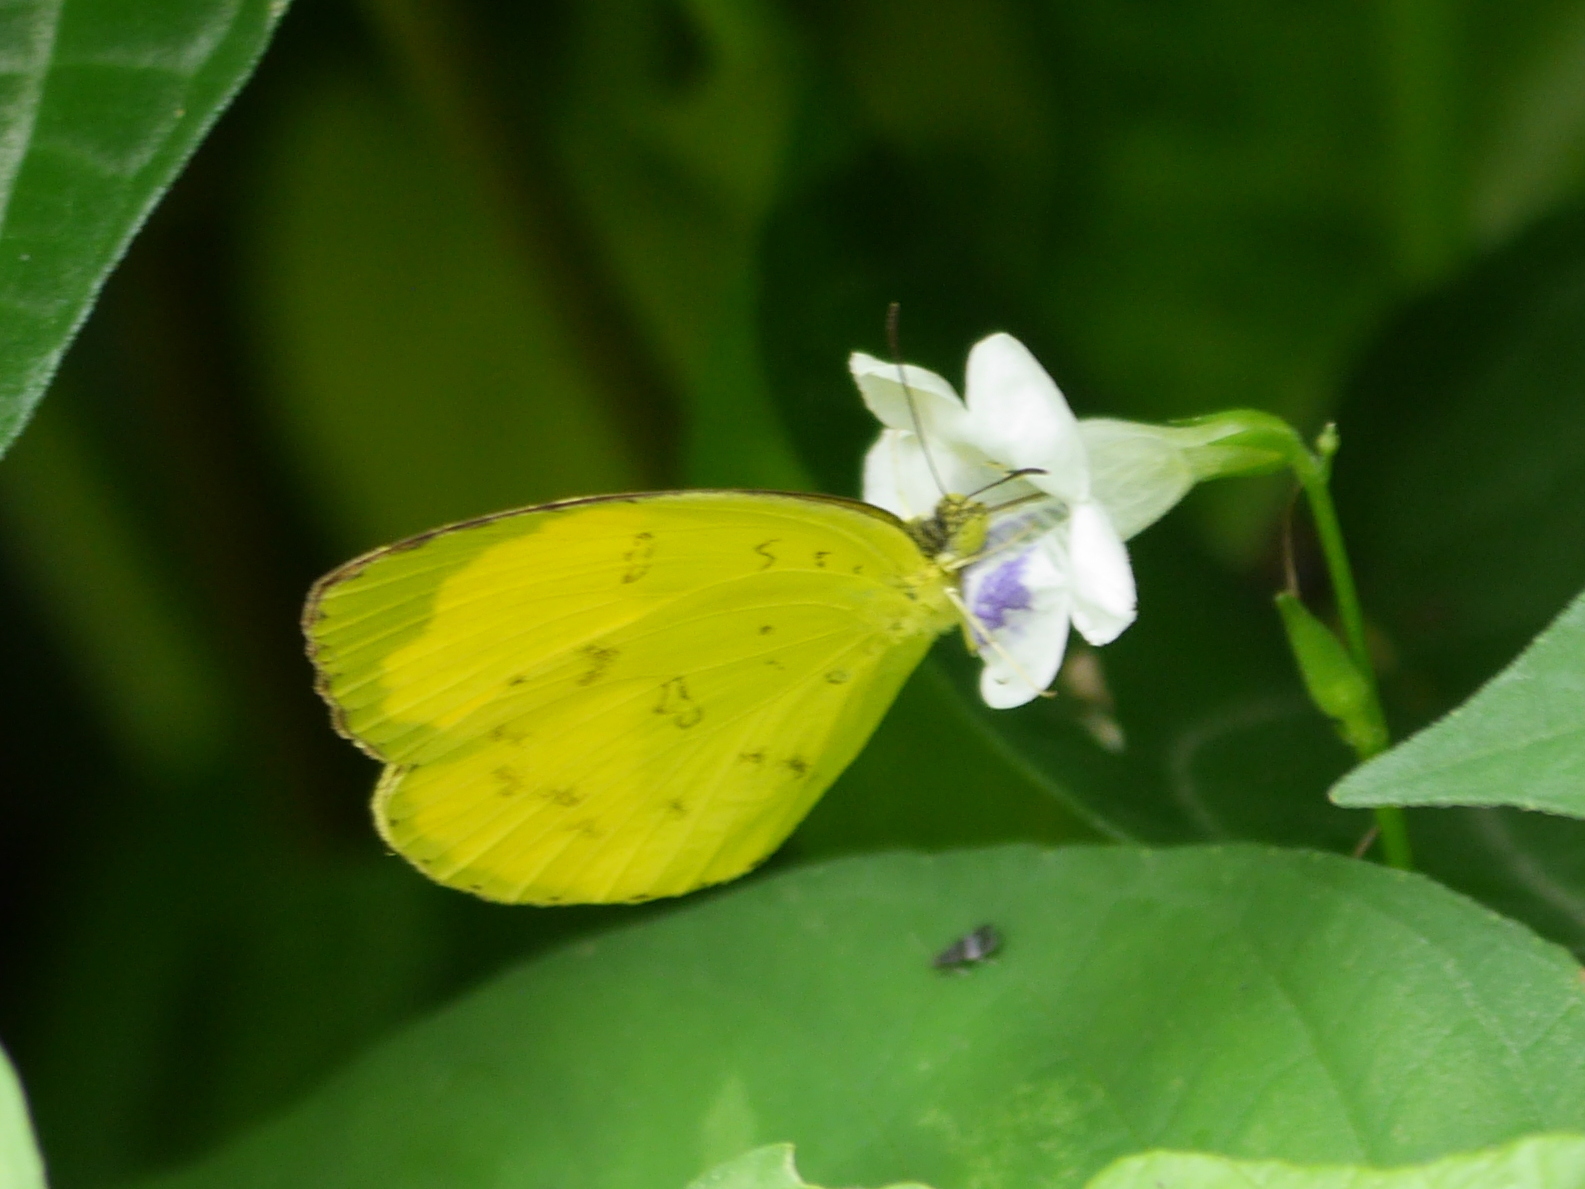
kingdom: Animalia
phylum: Arthropoda
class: Insecta
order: Lepidoptera
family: Pieridae
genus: Eurema
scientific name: Eurema blanda
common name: Three-spot grass yellow
